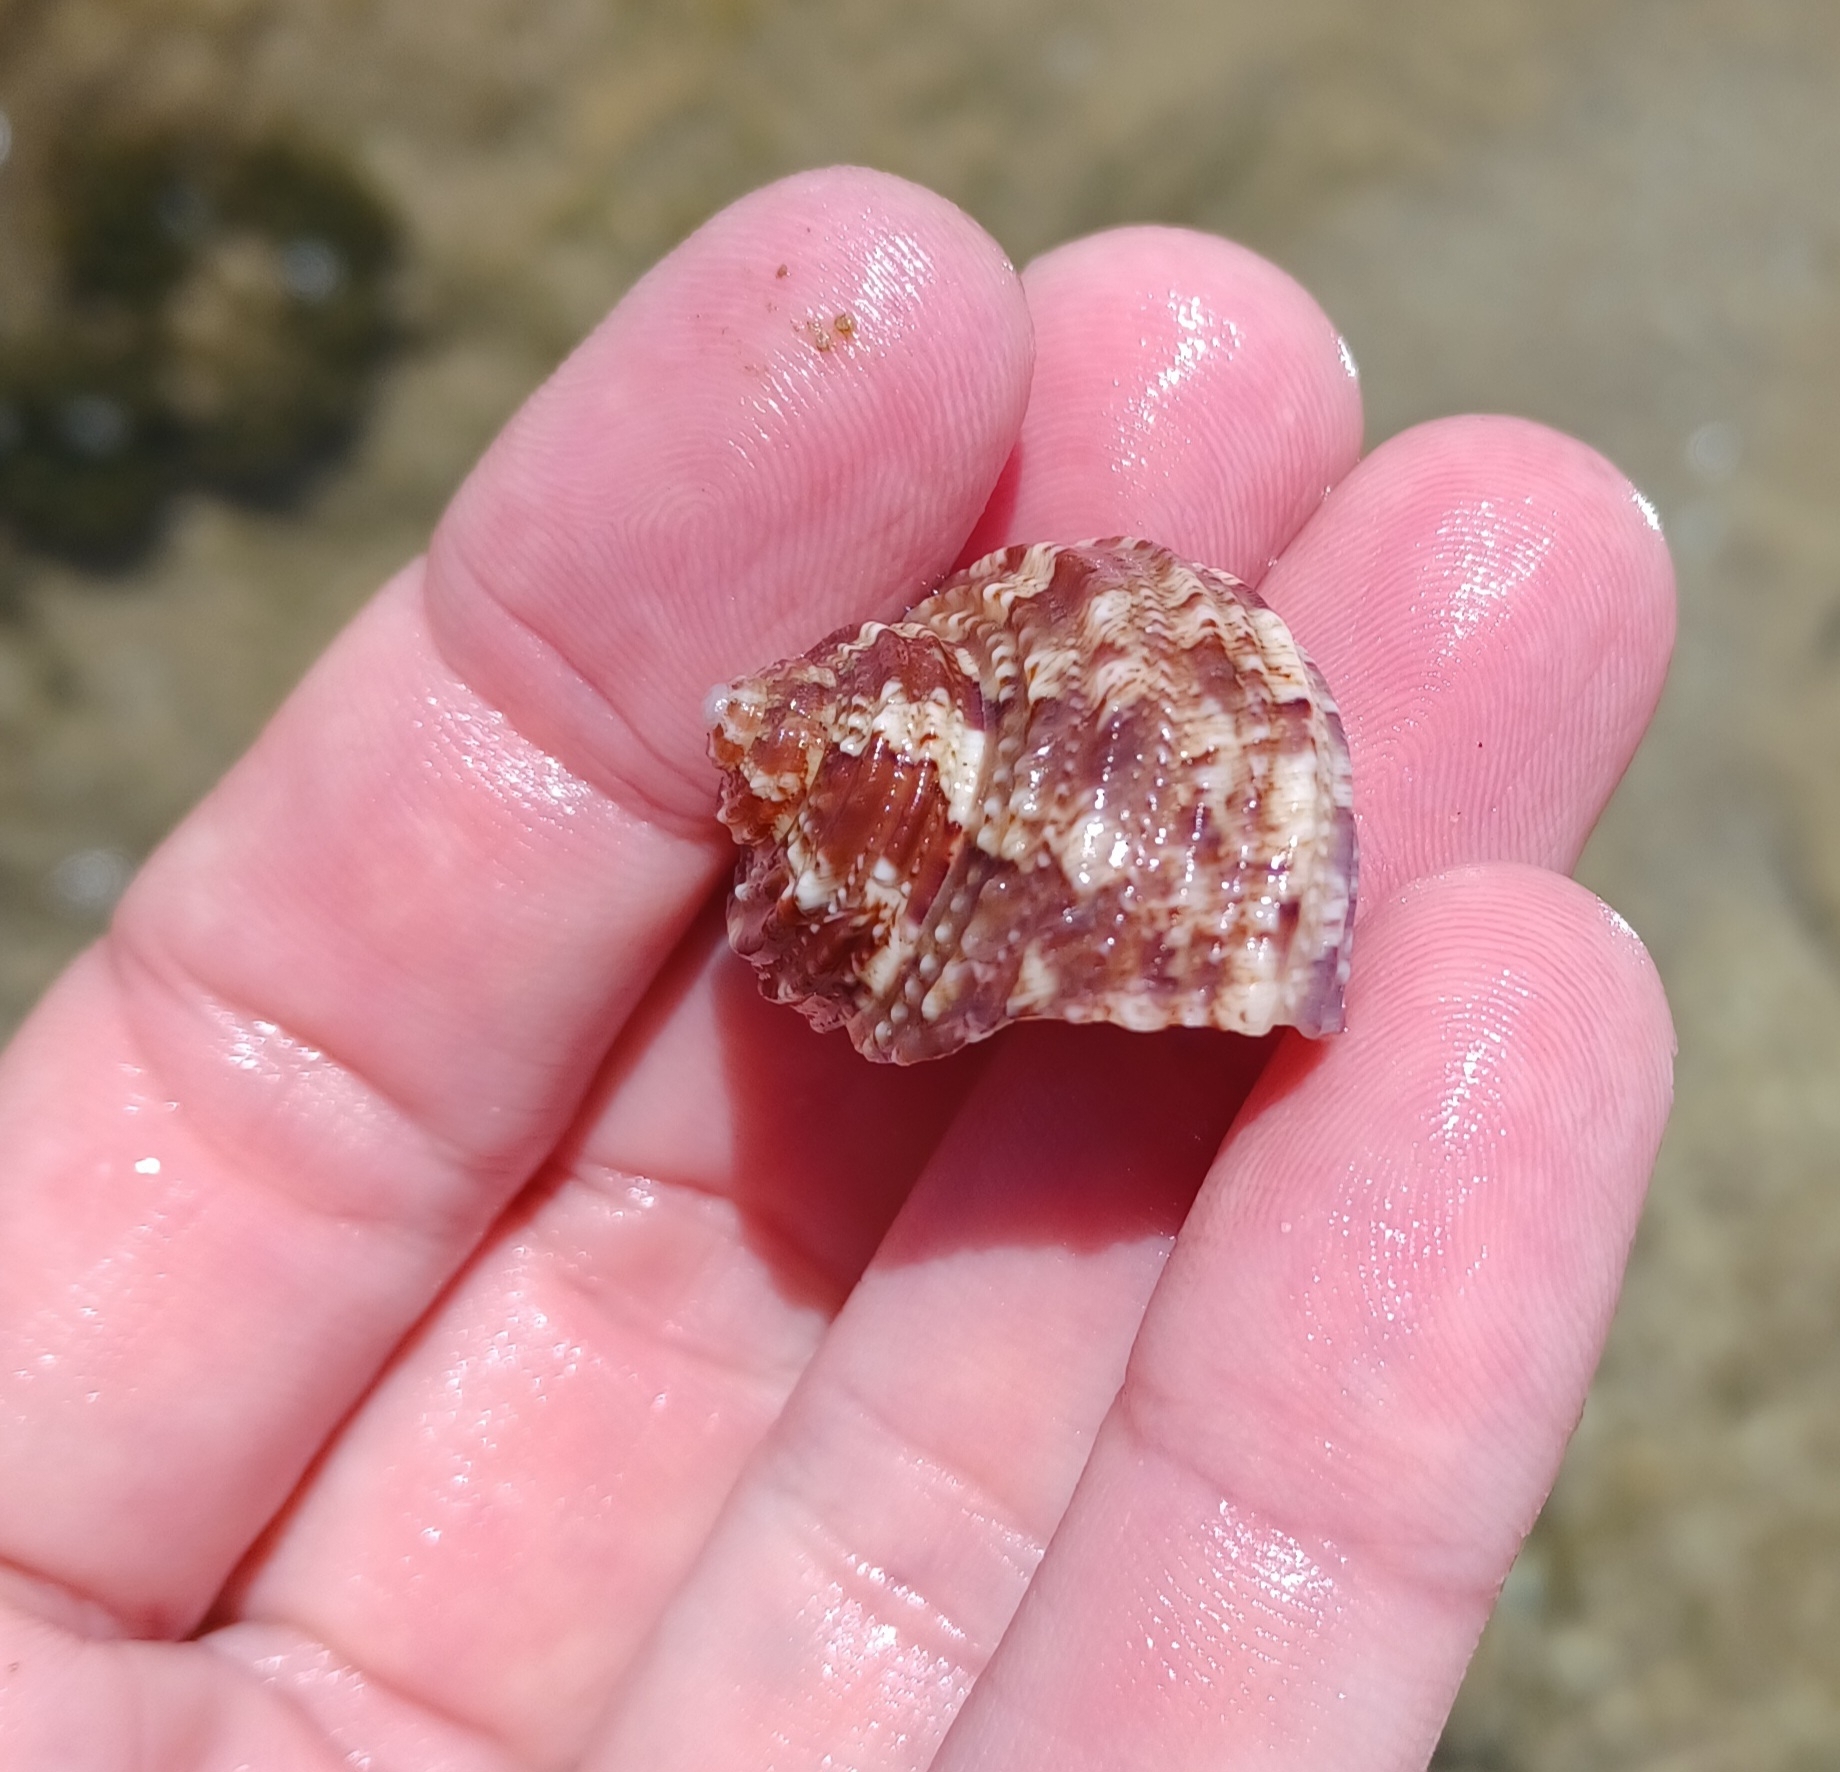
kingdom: Animalia
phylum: Mollusca
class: Gastropoda
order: Trochida
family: Turbinidae
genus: Turbo
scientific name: Turbo gruneri
